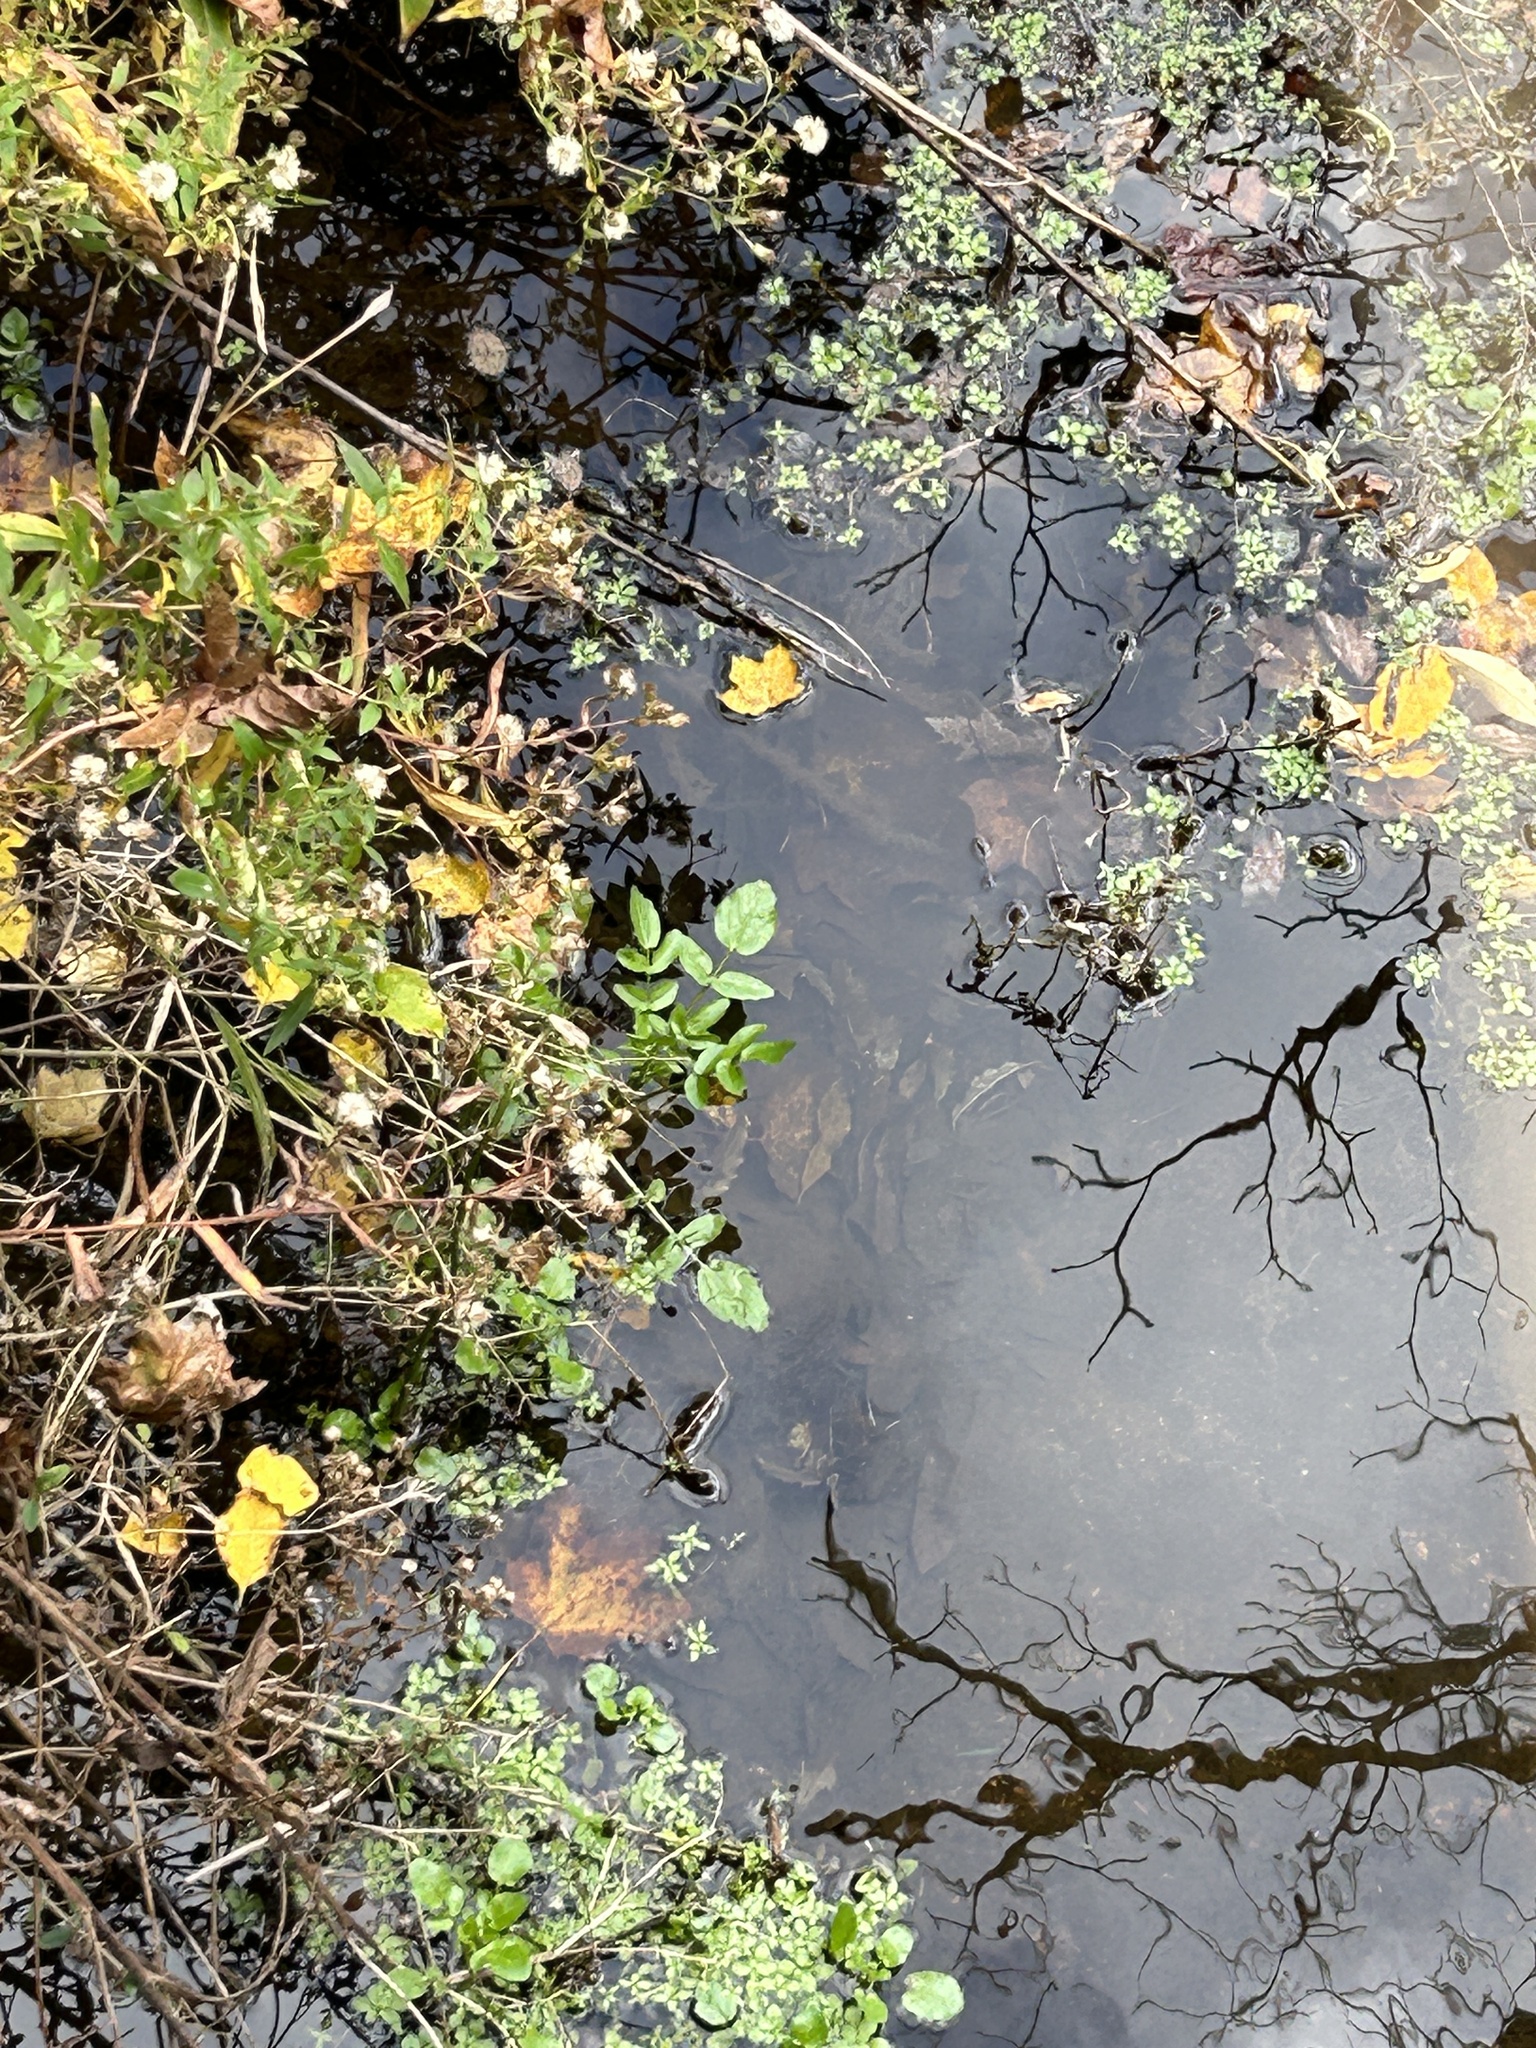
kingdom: Plantae
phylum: Tracheophyta
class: Magnoliopsida
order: Brassicales
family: Brassicaceae
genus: Nasturtium
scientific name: Nasturtium officinale
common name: Watercress
